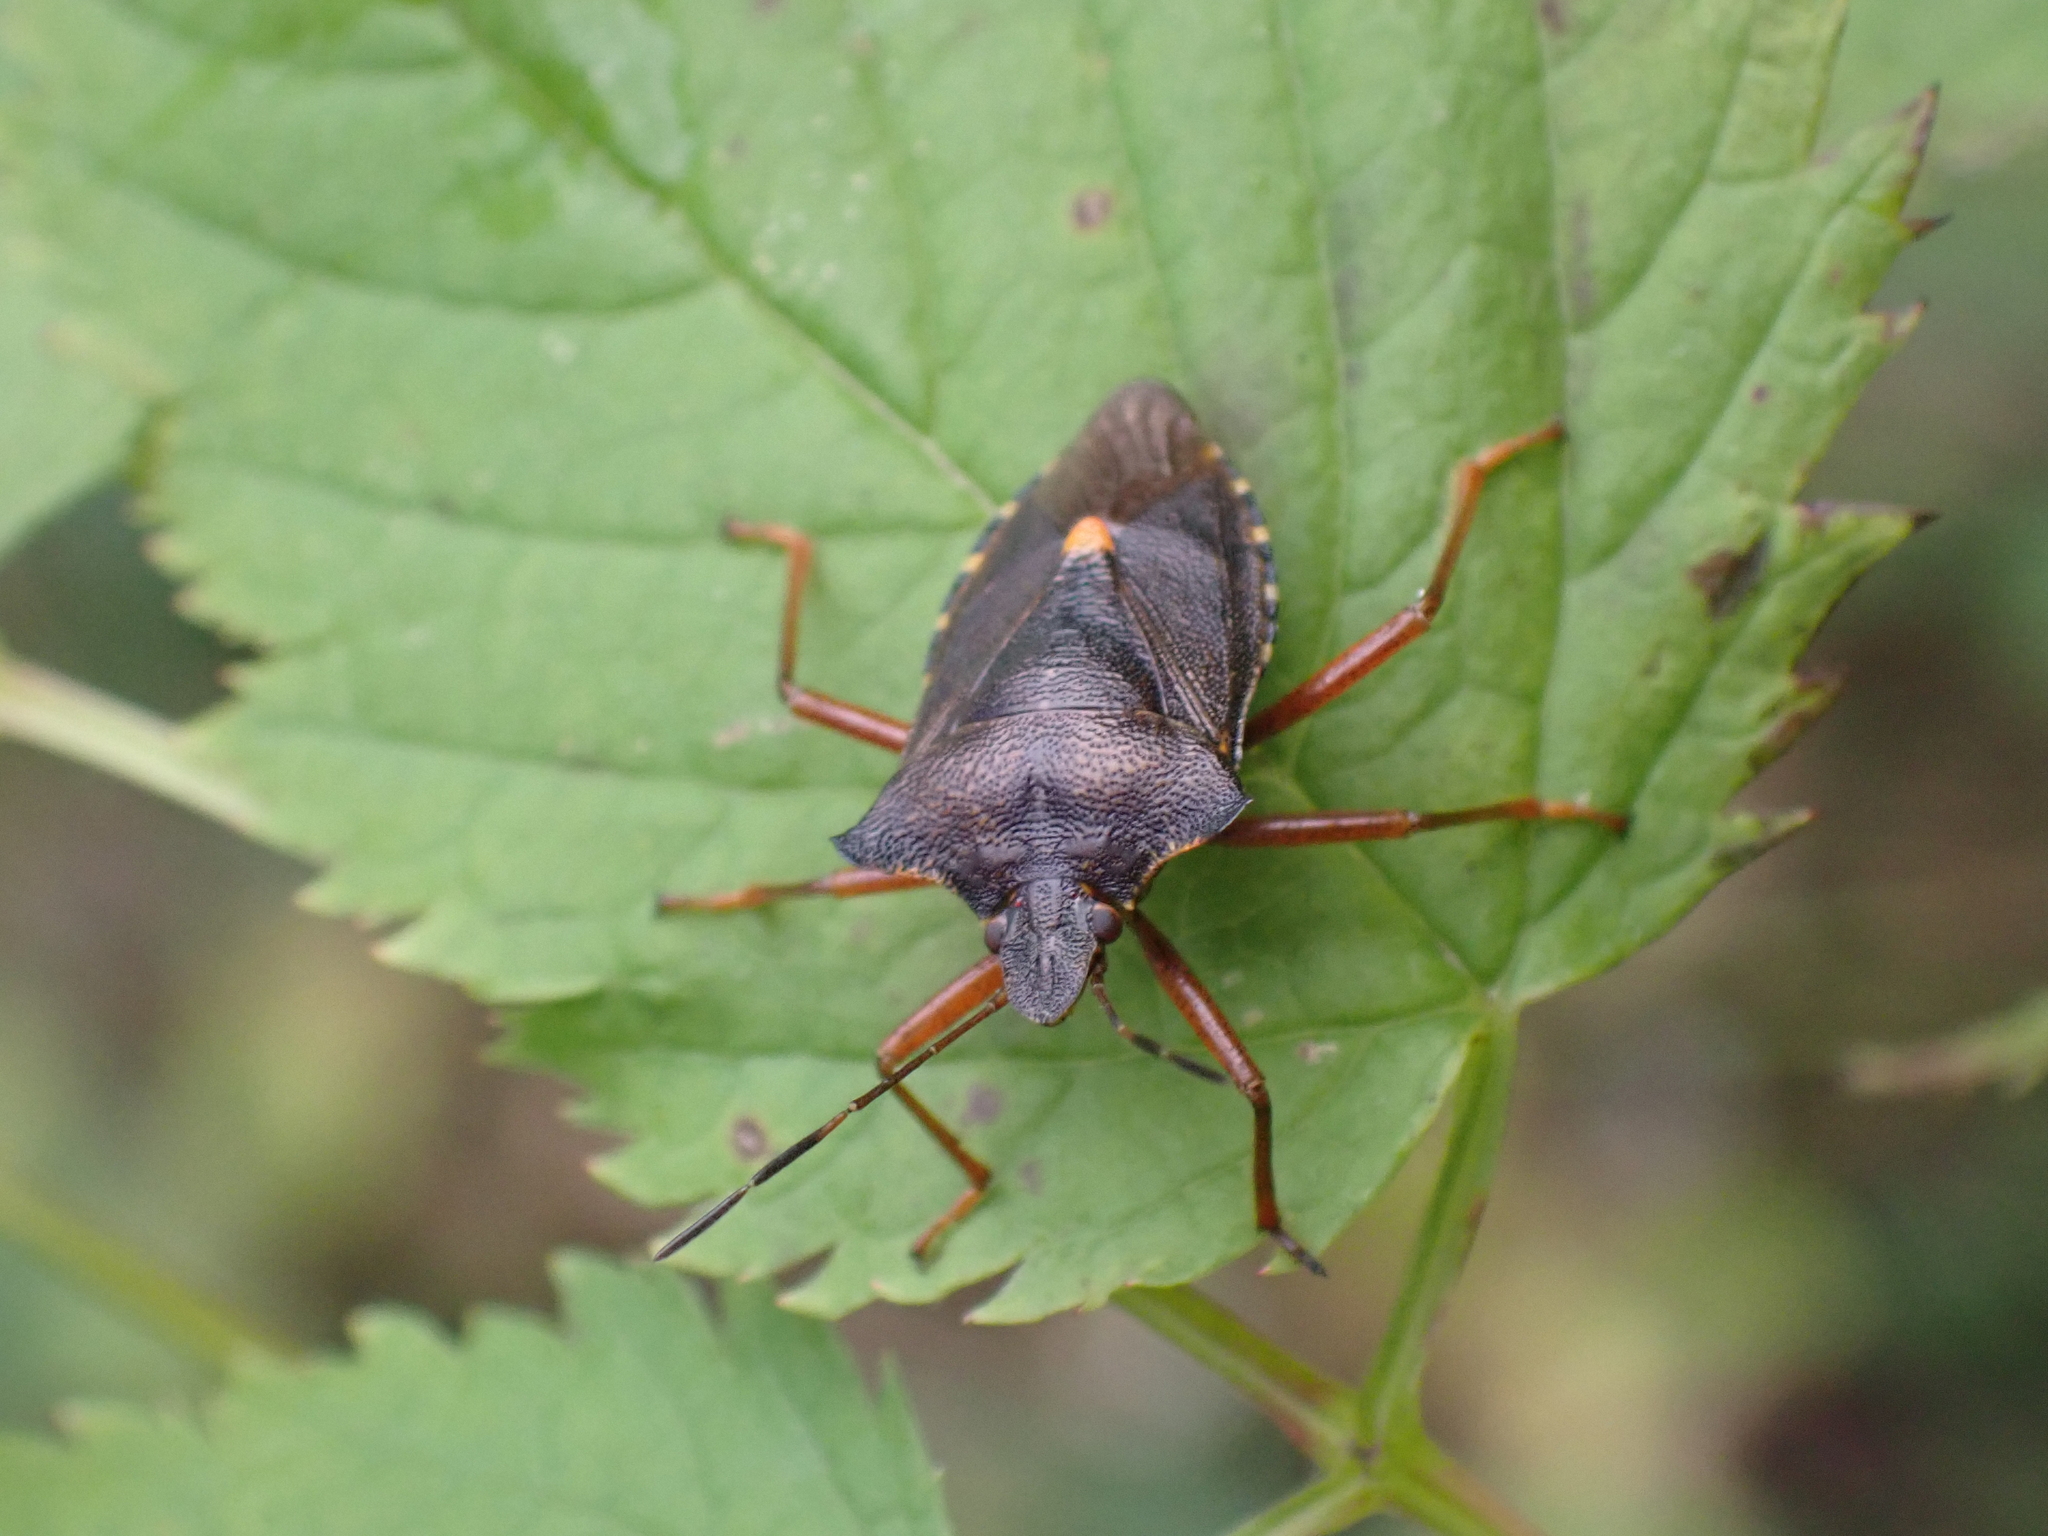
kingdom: Animalia
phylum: Arthropoda
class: Insecta
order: Hemiptera
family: Pentatomidae
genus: Pentatoma
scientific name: Pentatoma rufipes
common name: Forest bug
